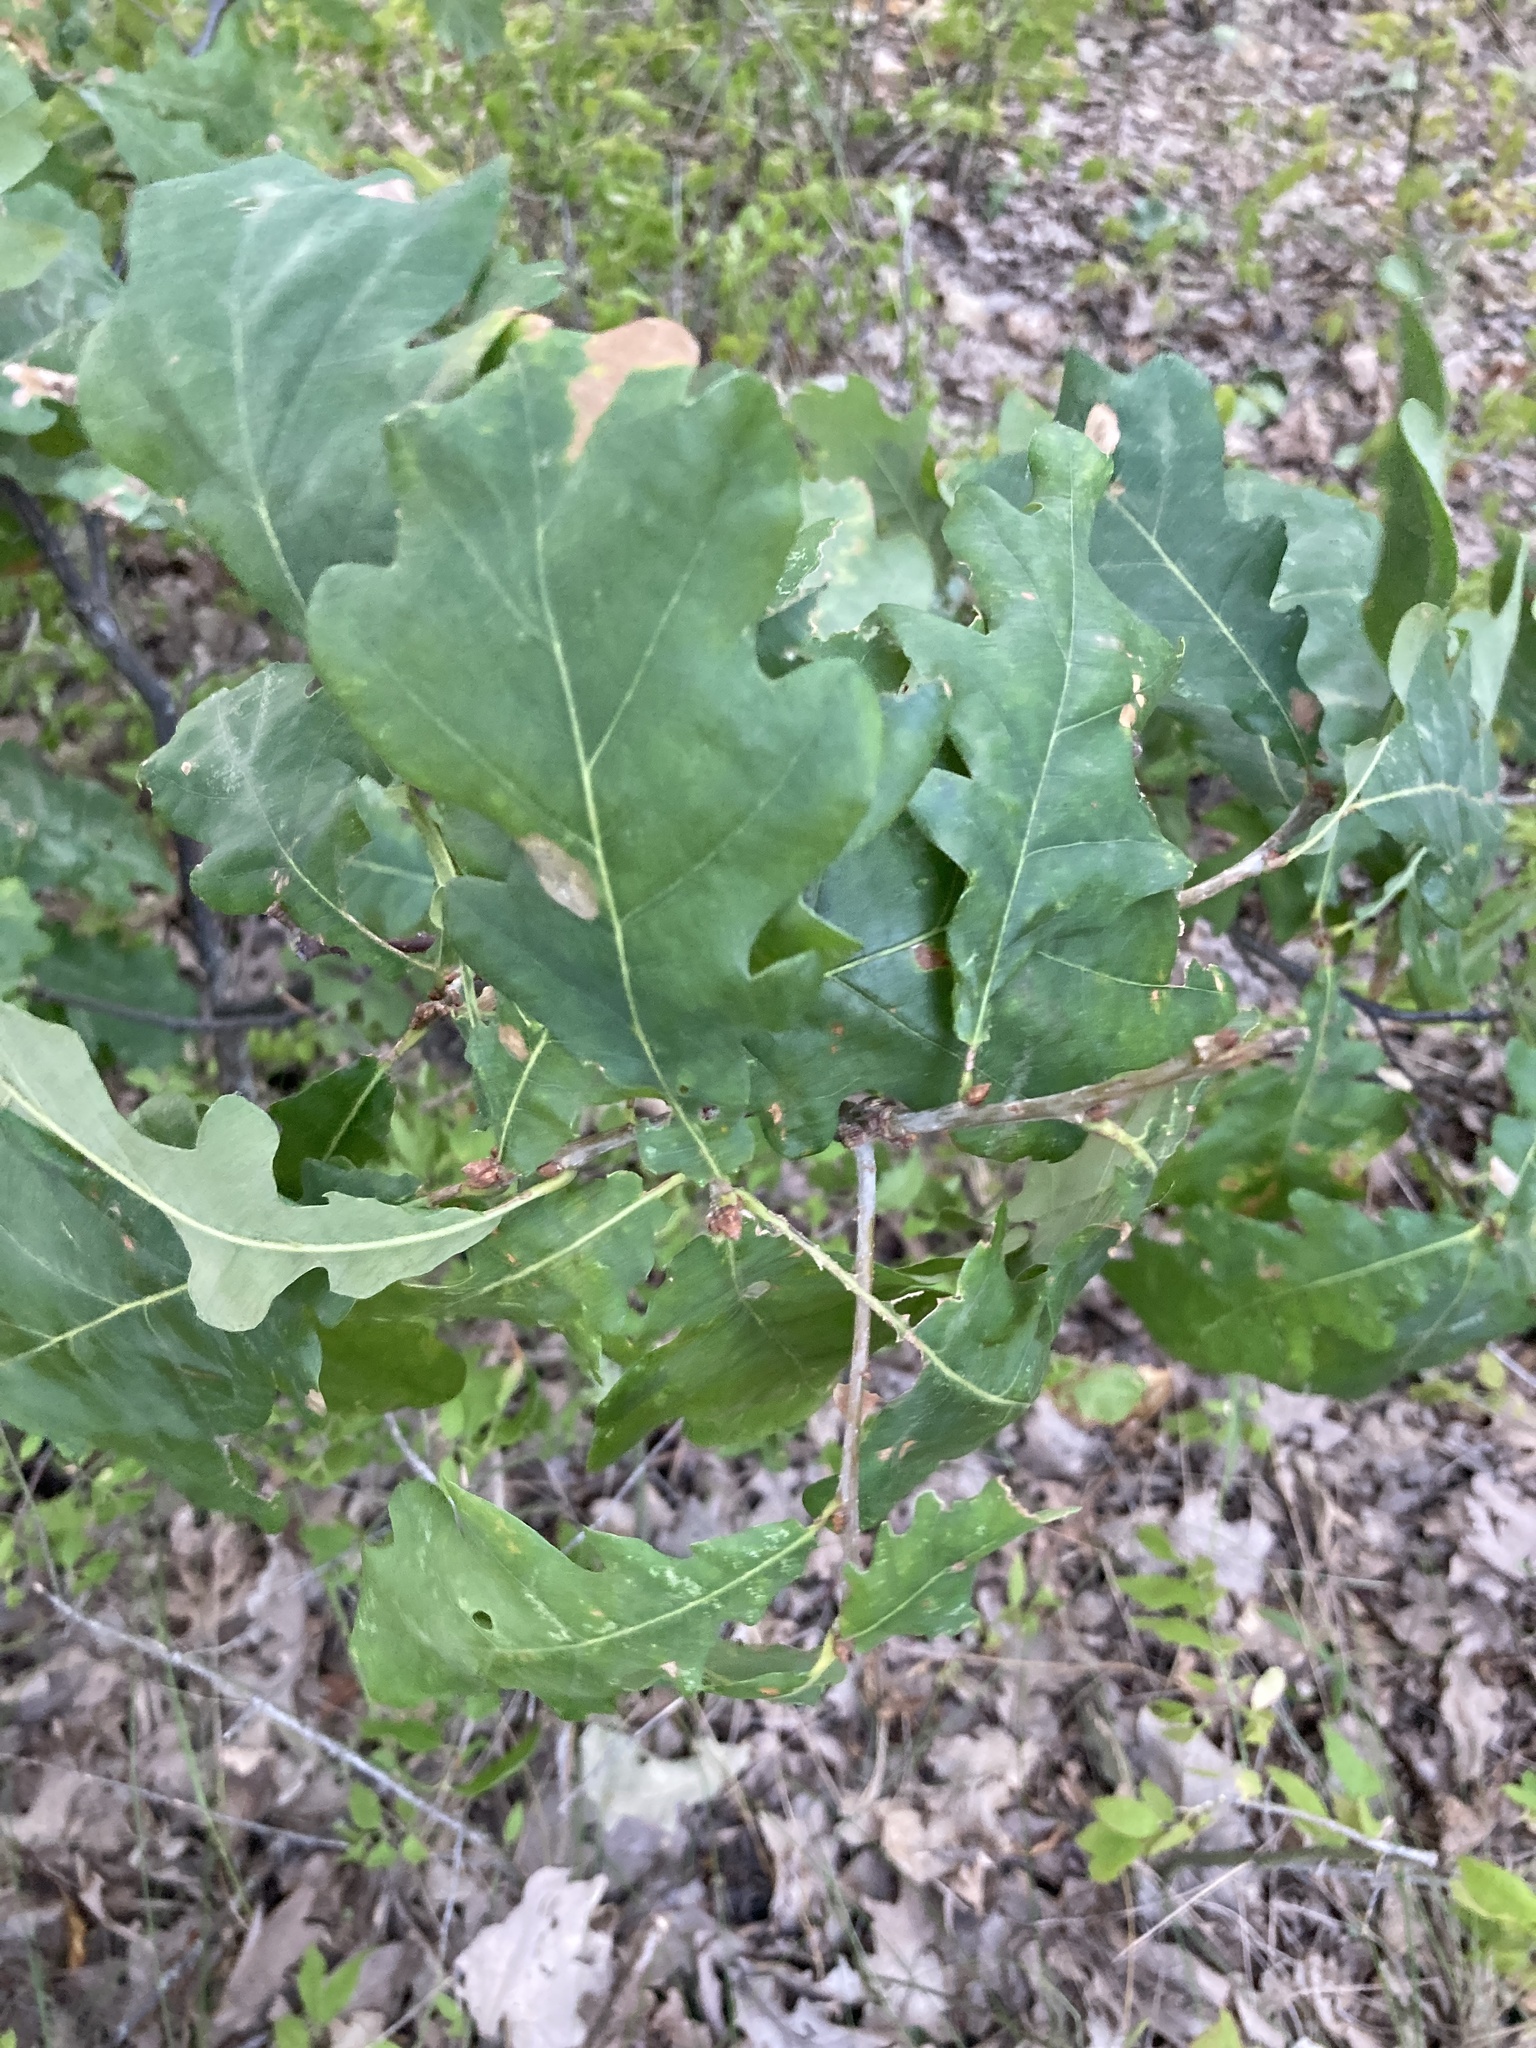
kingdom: Plantae
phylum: Tracheophyta
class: Magnoliopsida
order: Fagales
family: Fagaceae
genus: Quercus
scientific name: Quercus robur
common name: Pedunculate oak
